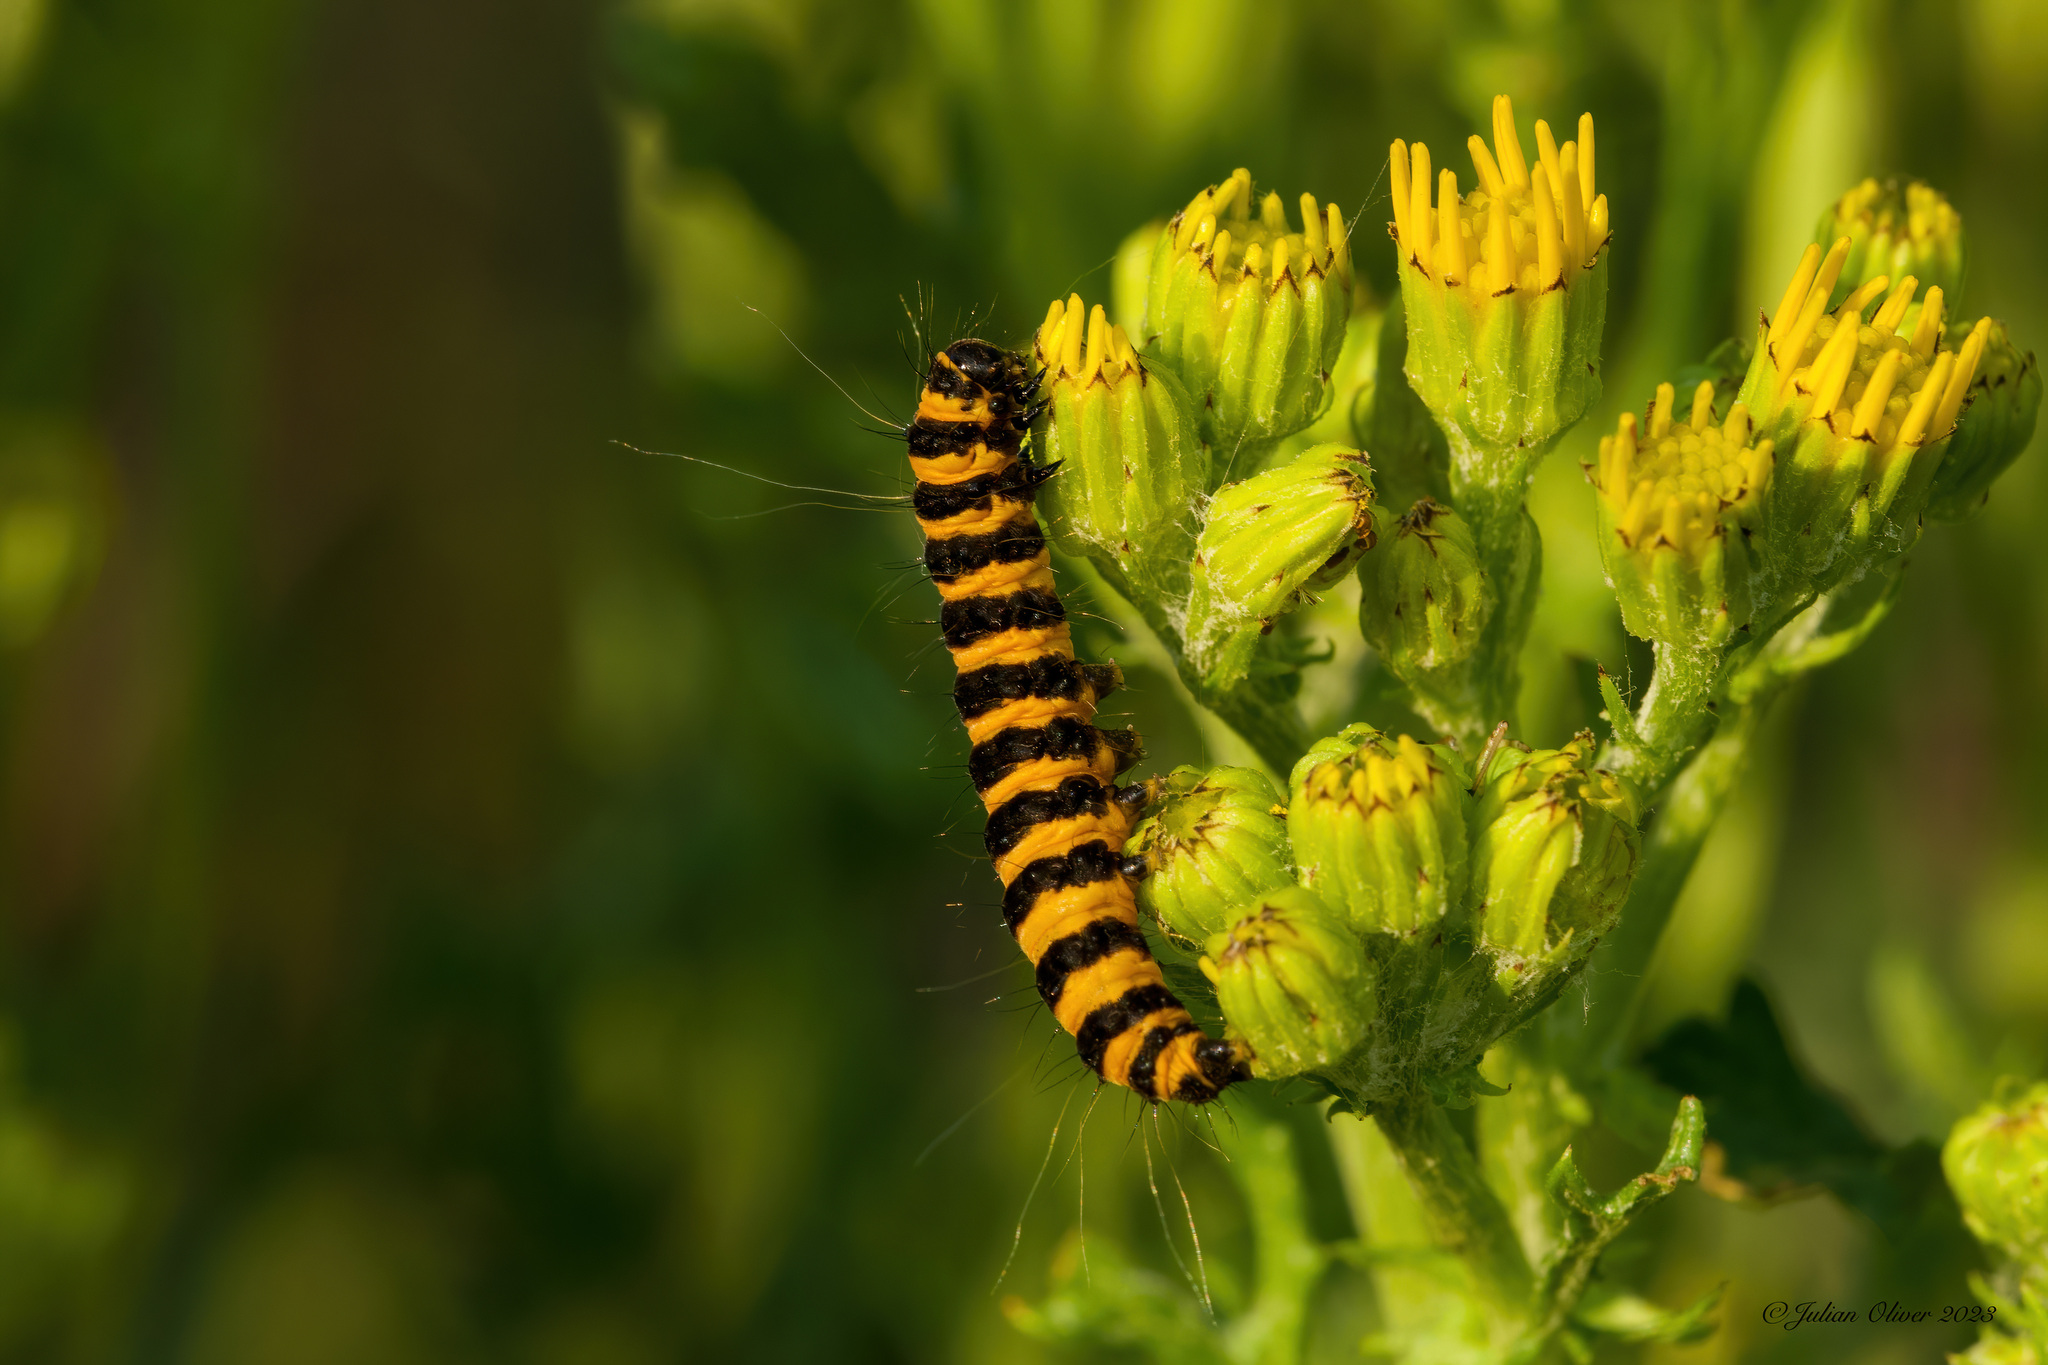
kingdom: Animalia
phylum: Arthropoda
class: Insecta
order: Lepidoptera
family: Erebidae
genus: Tyria
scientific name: Tyria jacobaeae
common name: Cinnabar
